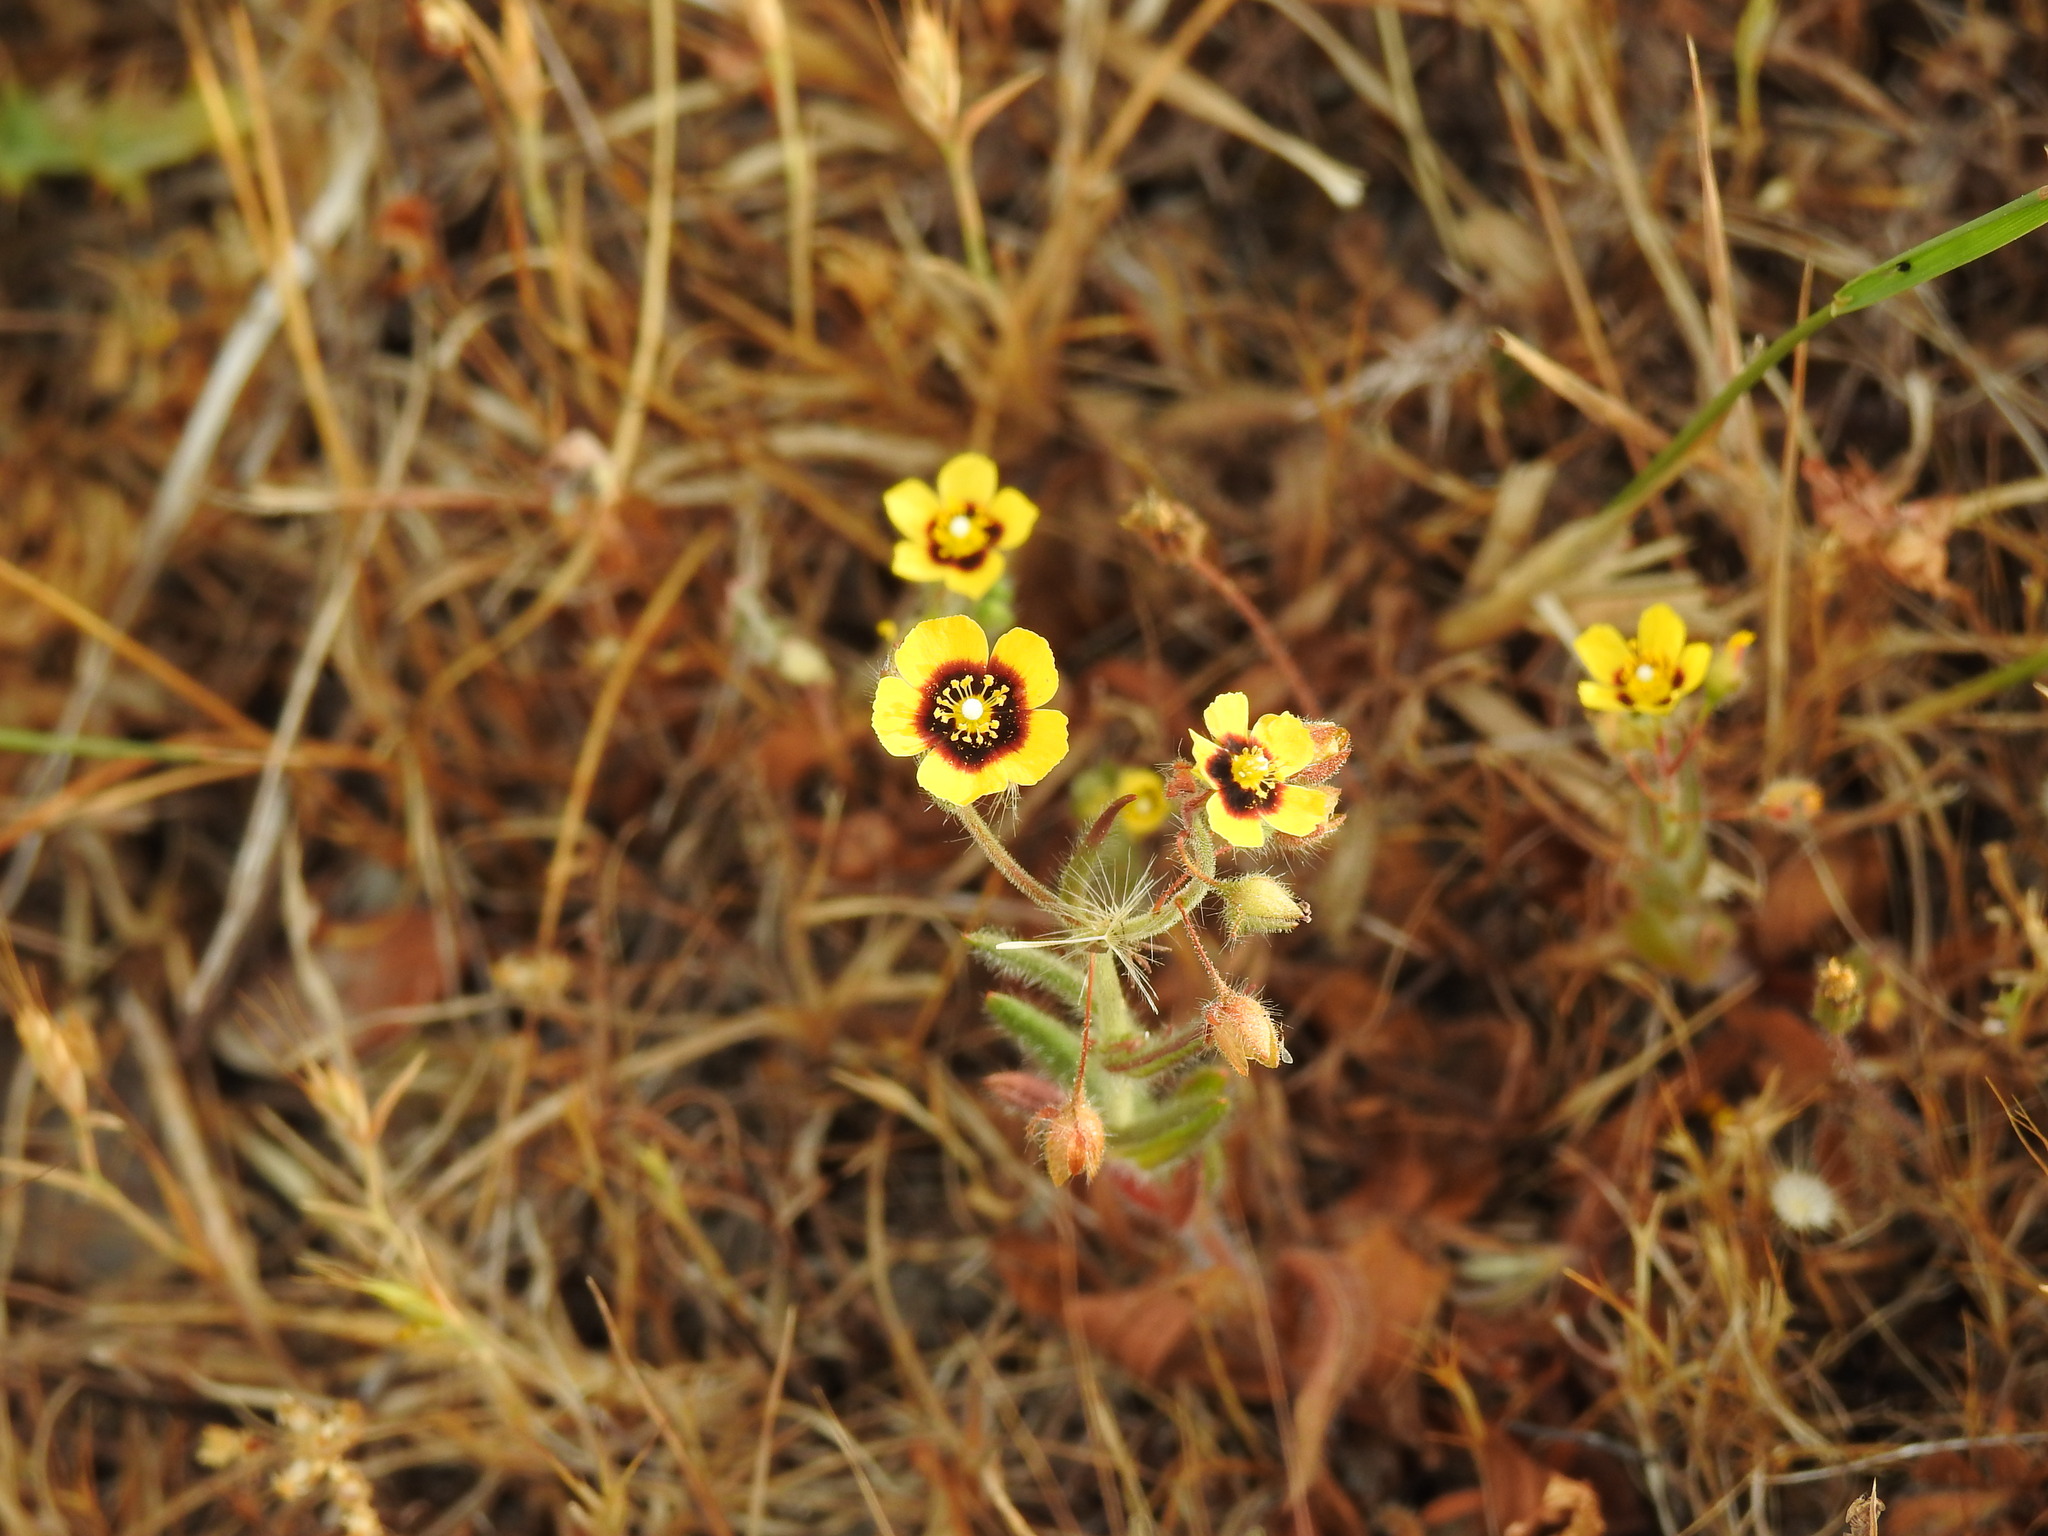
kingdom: Plantae
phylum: Tracheophyta
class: Magnoliopsida
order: Malvales
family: Cistaceae
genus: Tuberaria
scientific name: Tuberaria guttata
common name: Spotted rock-rose
